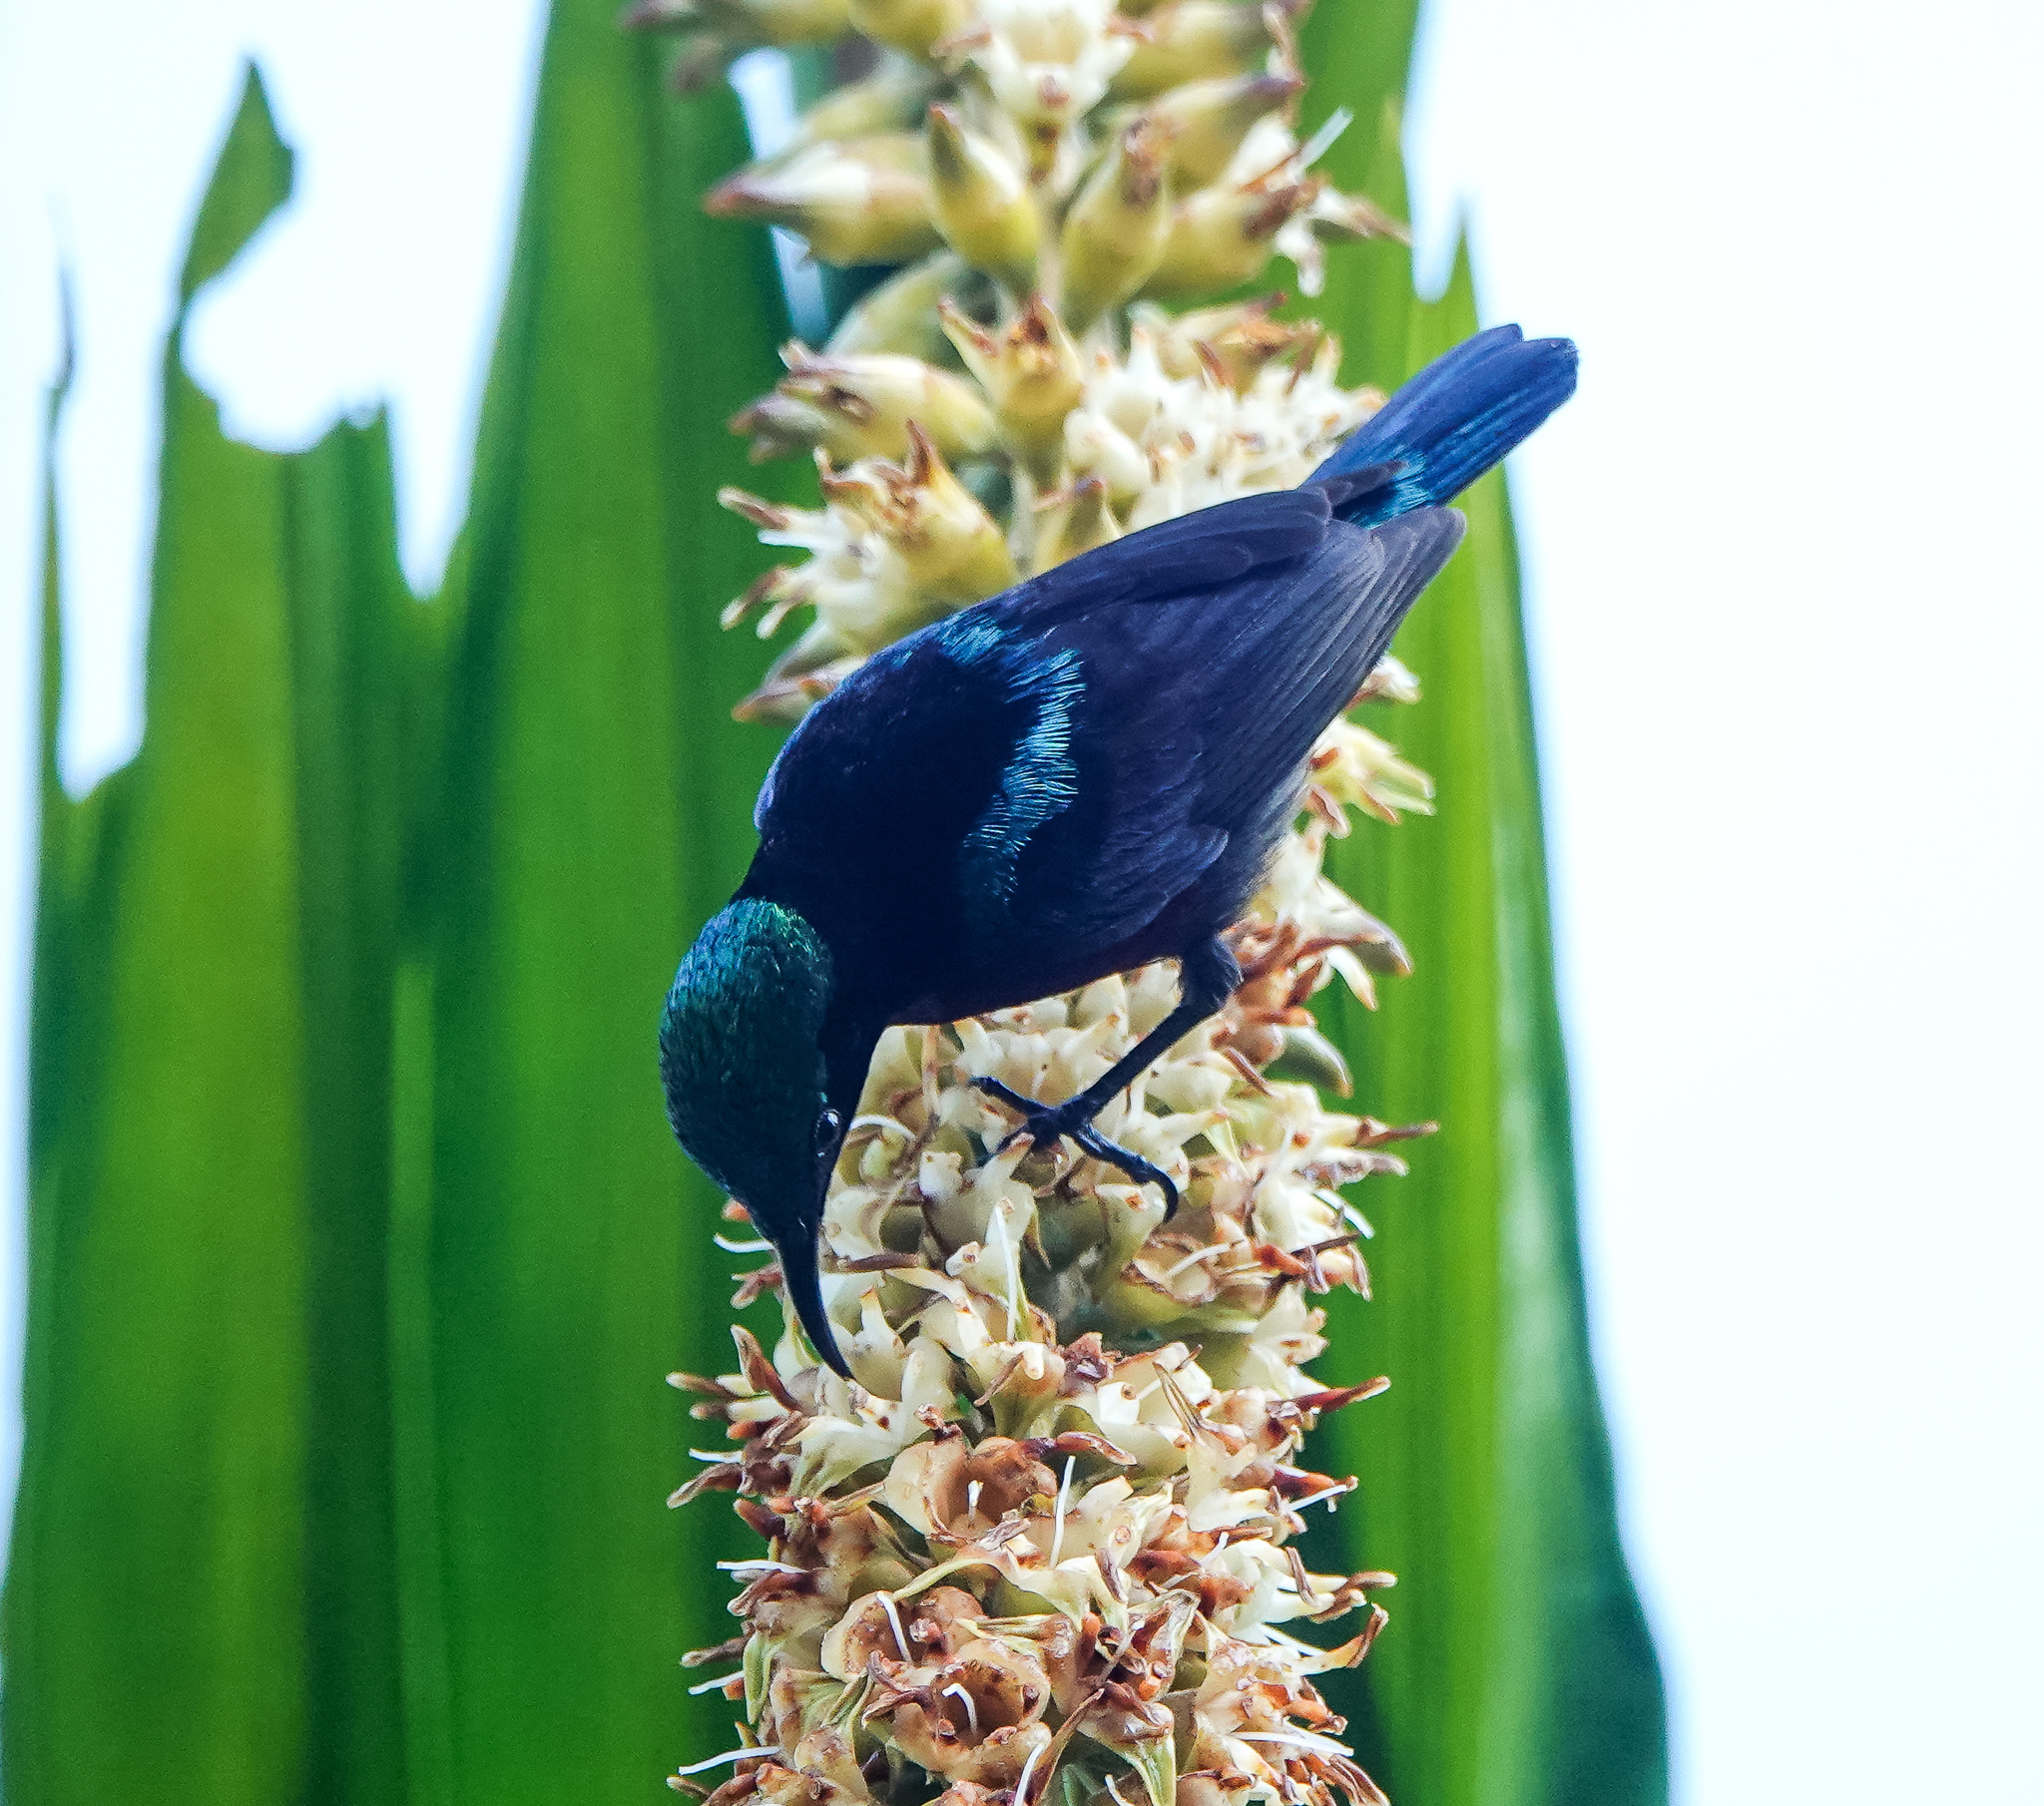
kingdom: Animalia
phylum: Chordata
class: Aves
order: Passeriformes
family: Nectariniidae
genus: Leptocoma
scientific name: Leptocoma brasiliana
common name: Van hasselt's sunbird
